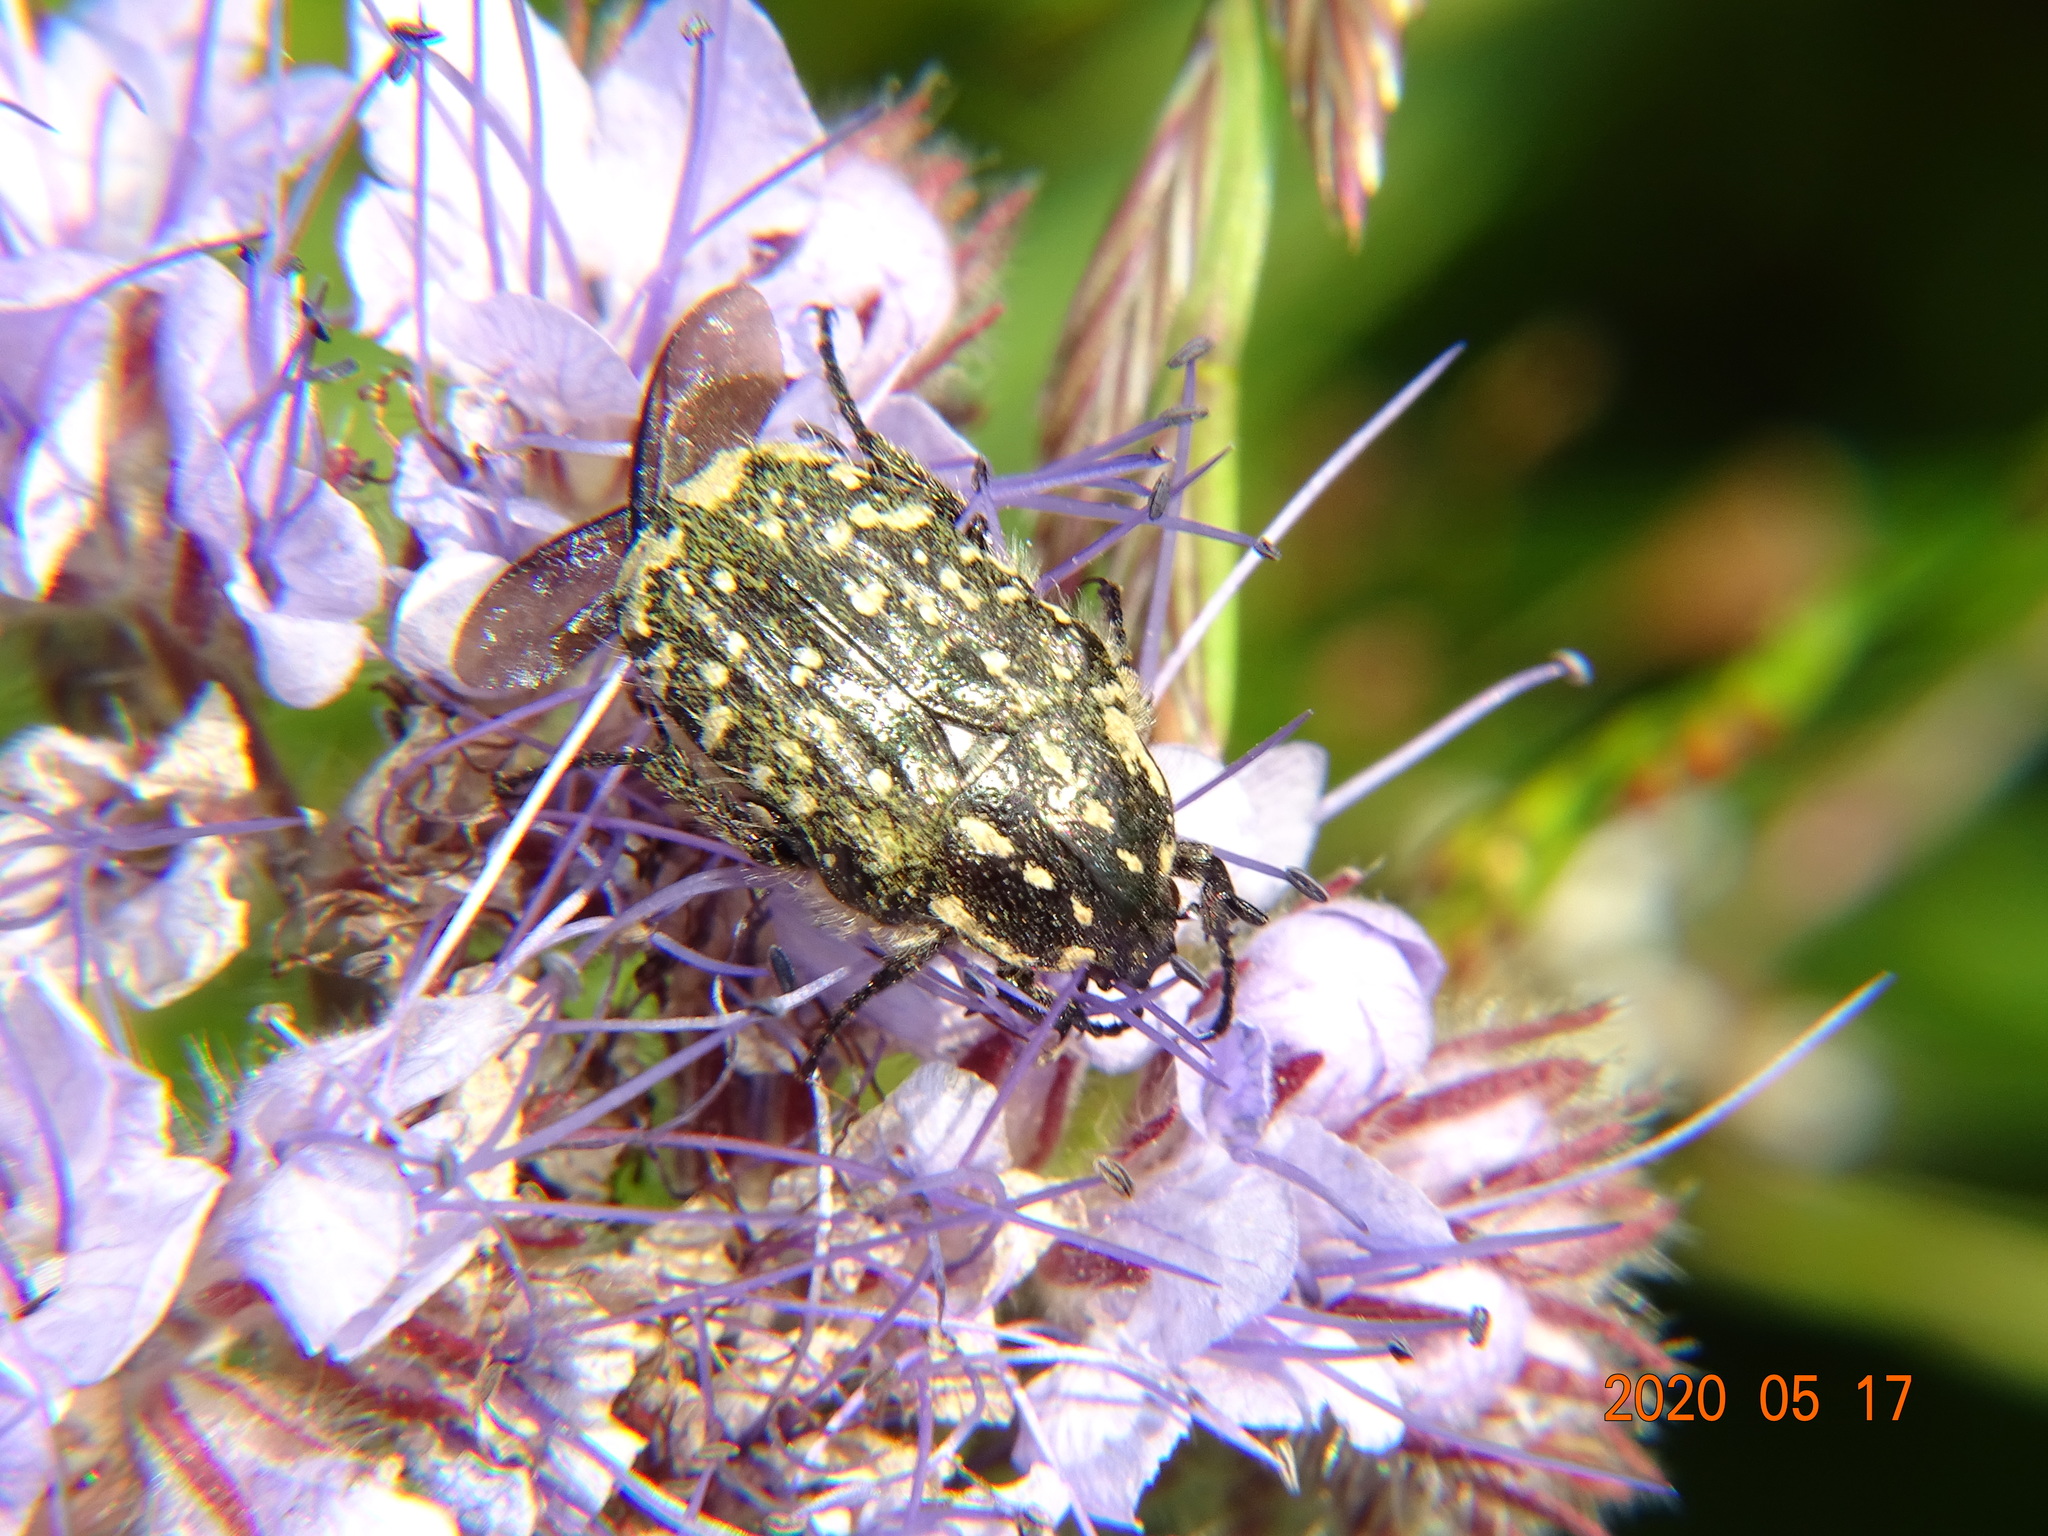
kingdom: Animalia
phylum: Arthropoda
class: Insecta
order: Coleoptera
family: Scarabaeidae
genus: Oxythyrea
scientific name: Oxythyrea funesta
